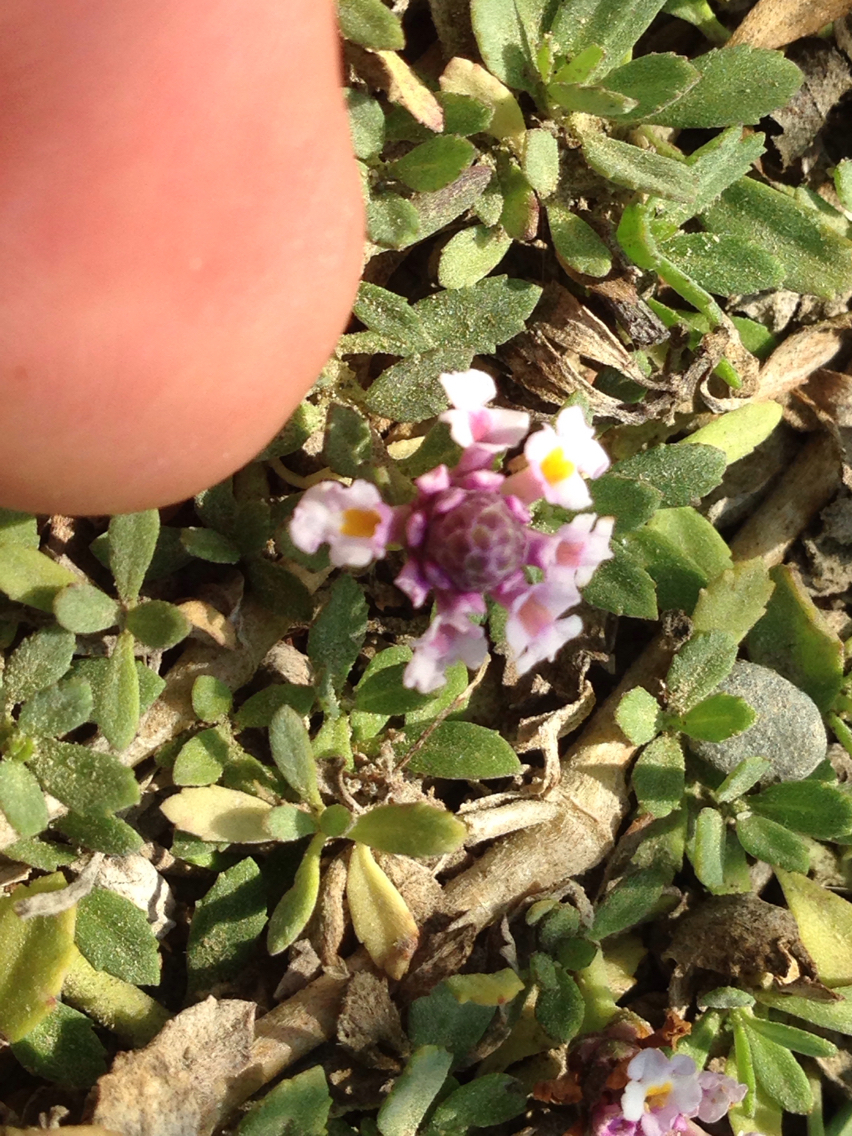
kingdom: Plantae
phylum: Tracheophyta
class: Magnoliopsida
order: Lamiales
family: Verbenaceae
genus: Phyla
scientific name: Phyla nodiflora
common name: Frogfruit
